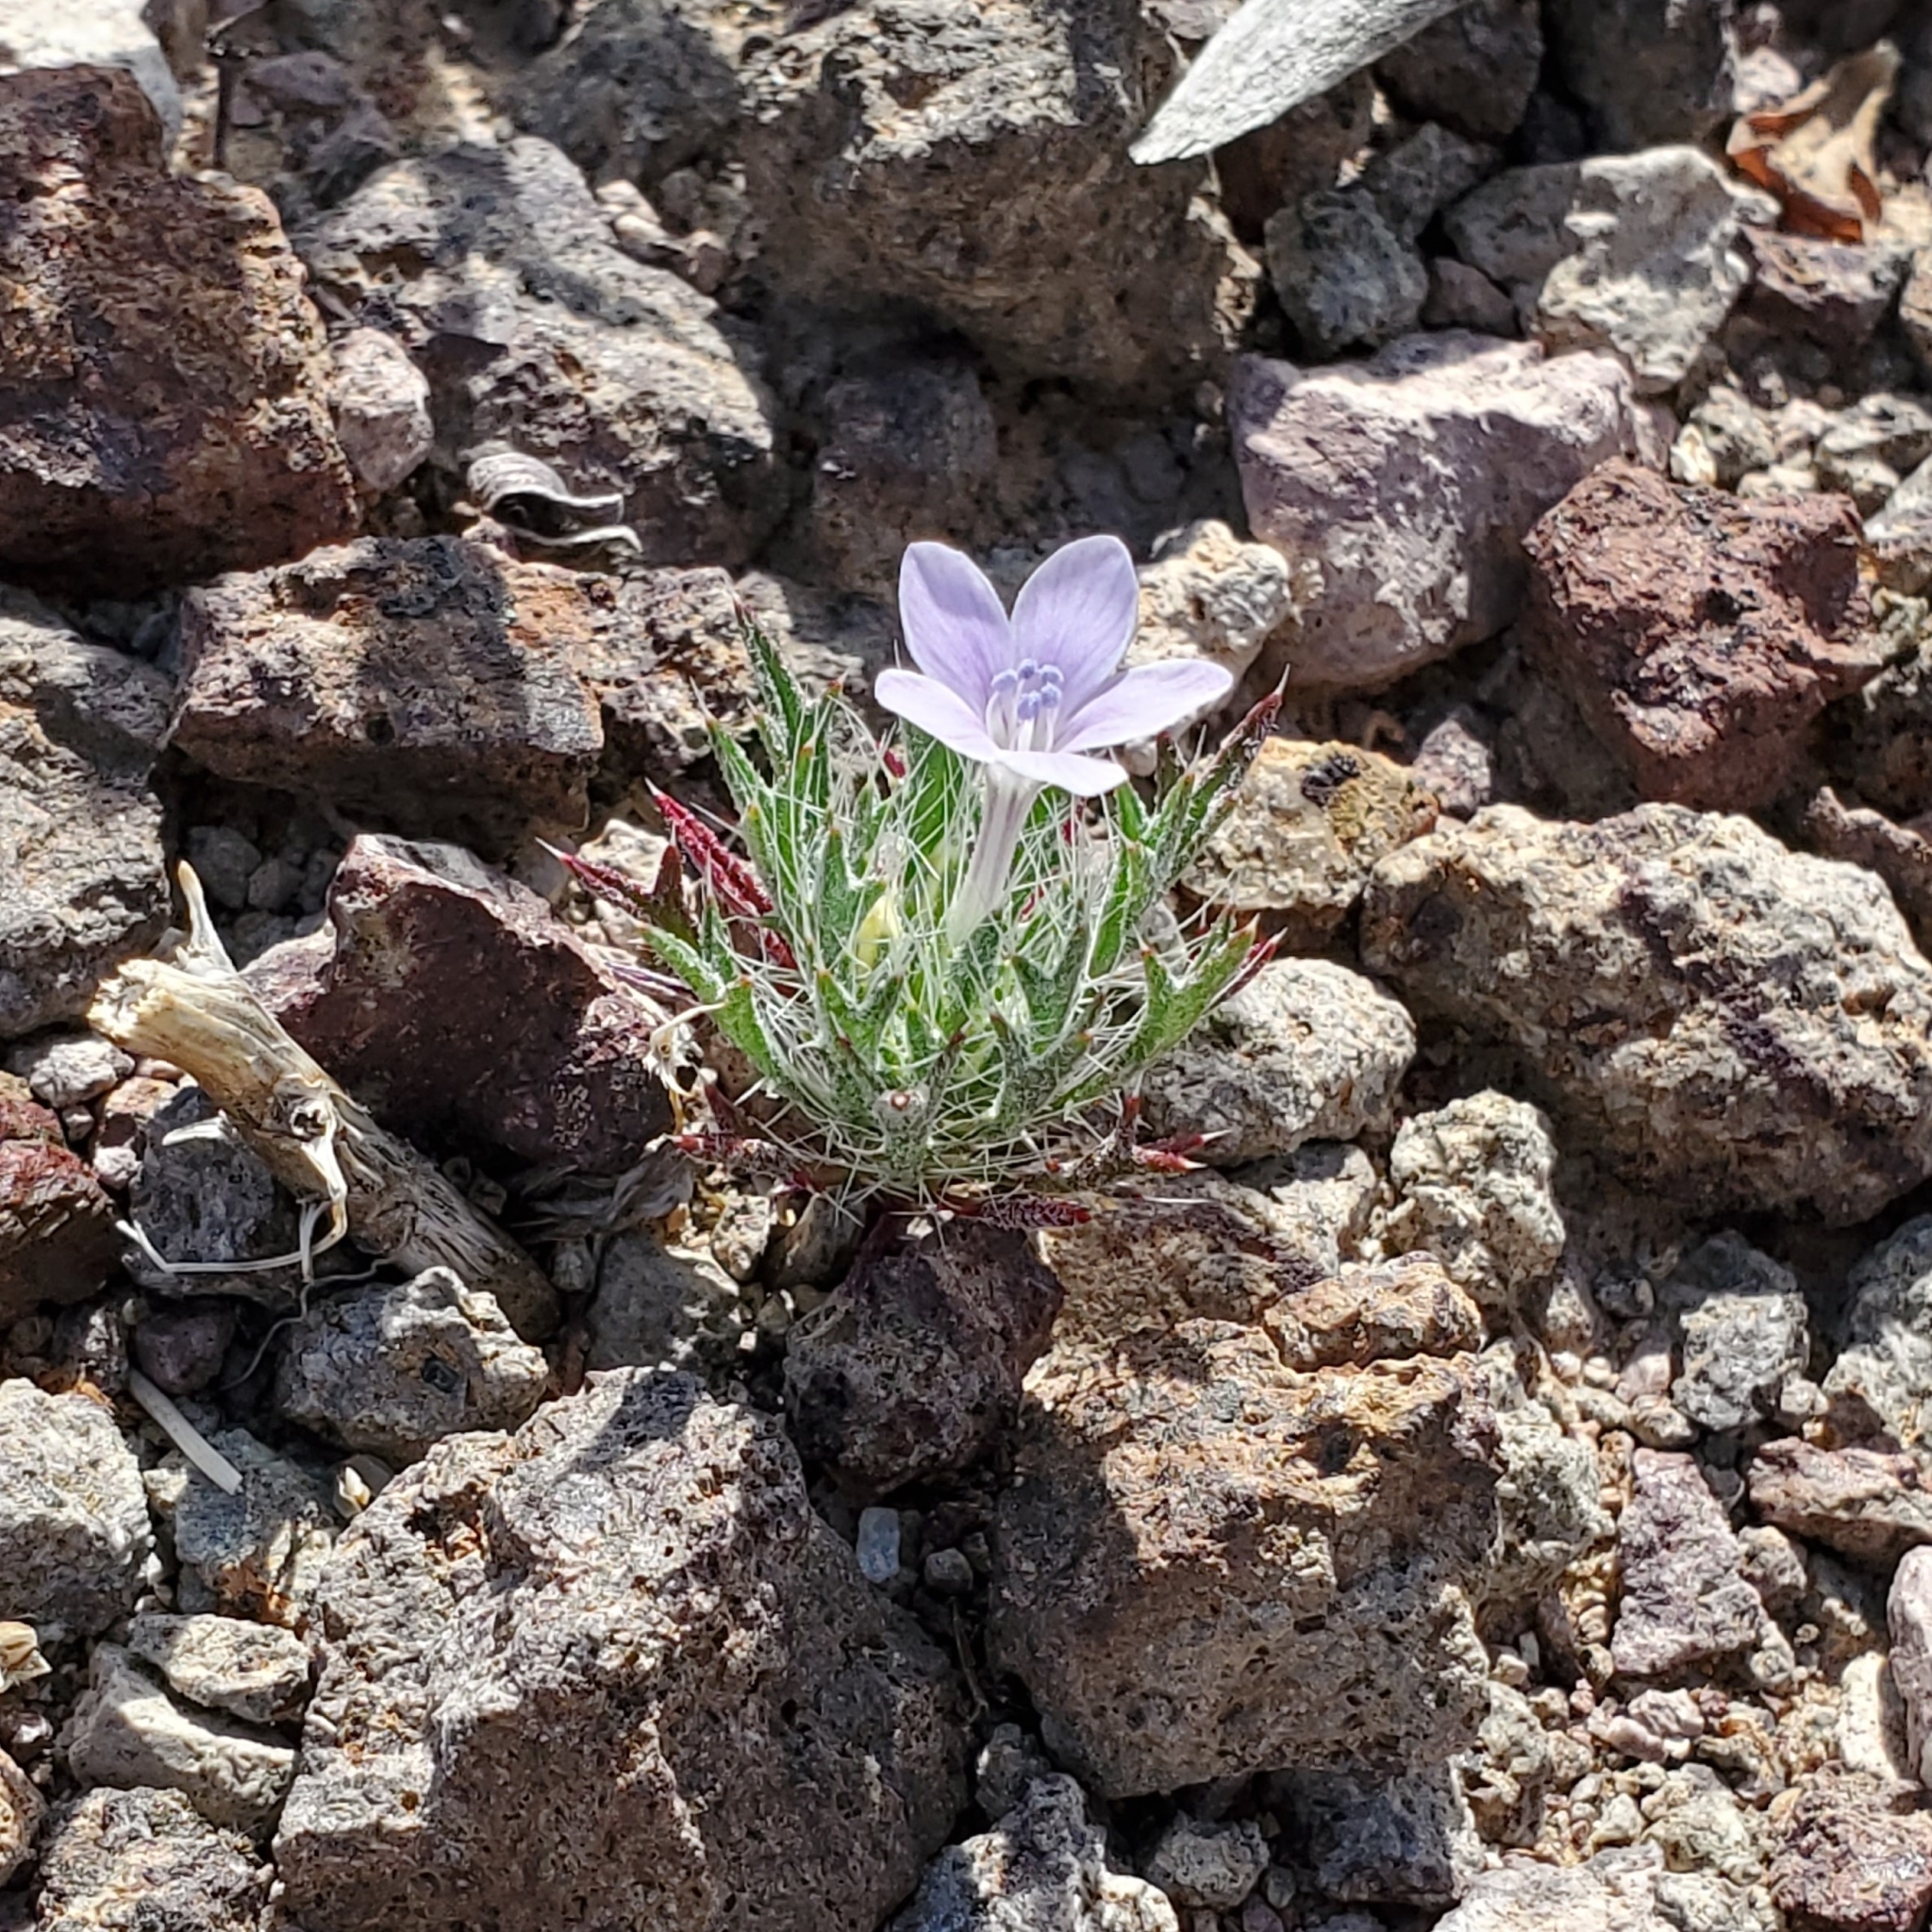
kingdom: Plantae
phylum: Tracheophyta
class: Magnoliopsida
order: Ericales
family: Polemoniaceae
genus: Langloisia
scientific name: Langloisia setosissima
